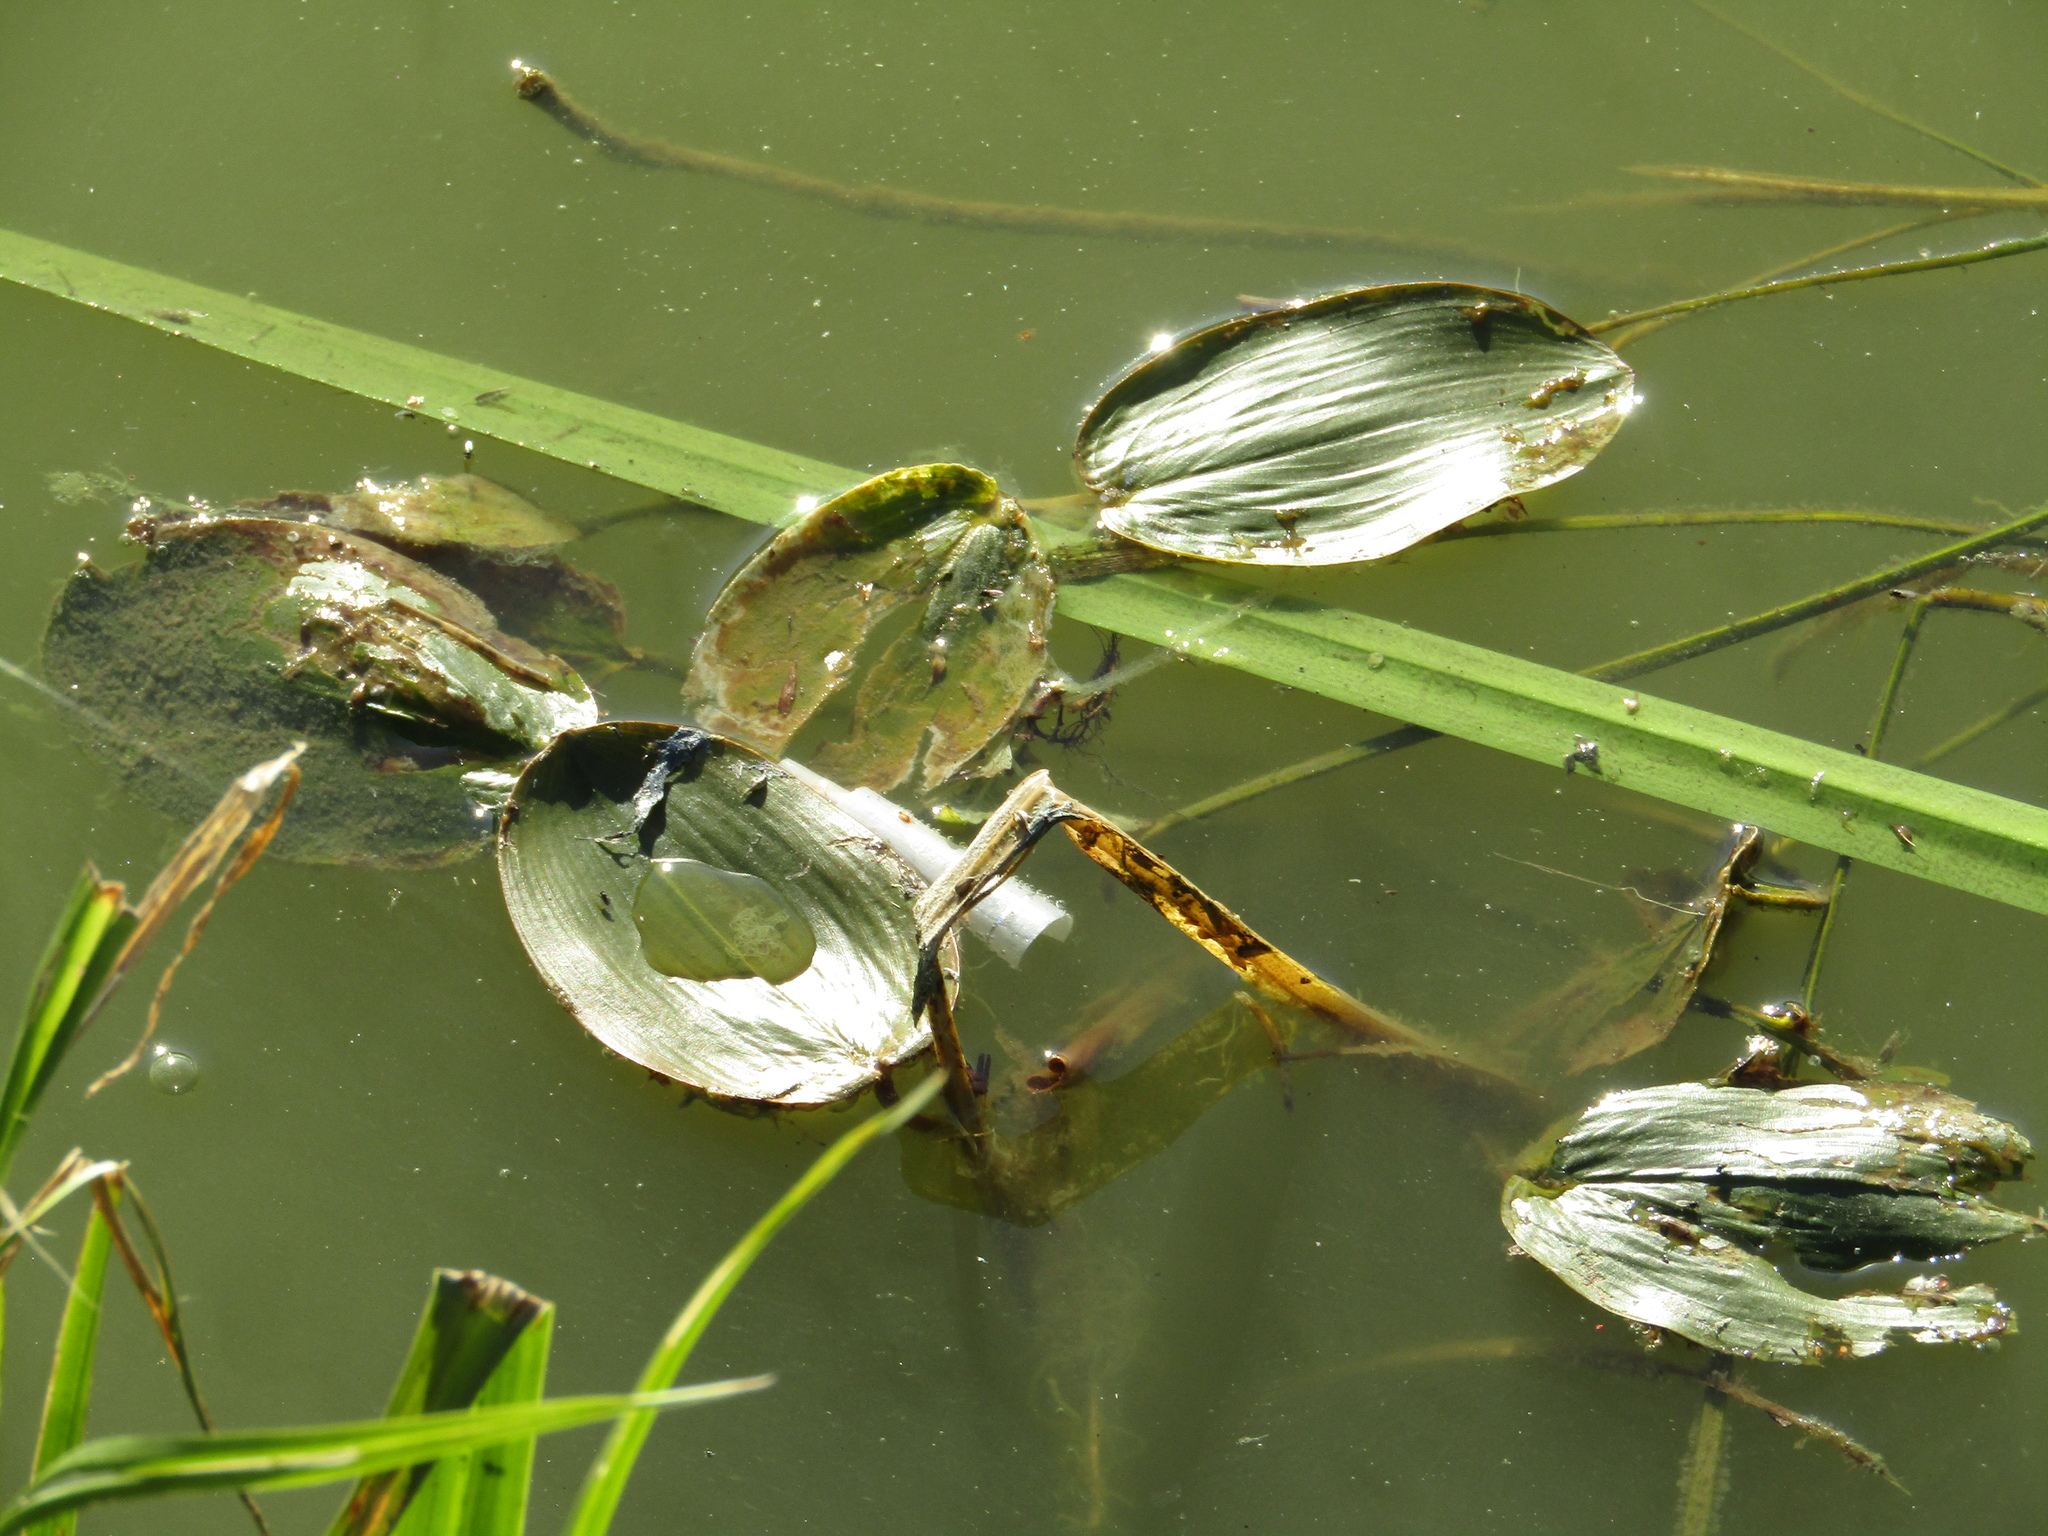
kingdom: Plantae
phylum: Tracheophyta
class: Liliopsida
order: Alismatales
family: Potamogetonaceae
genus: Potamogeton
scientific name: Potamogeton natans
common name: Broad-leaved pondweed
